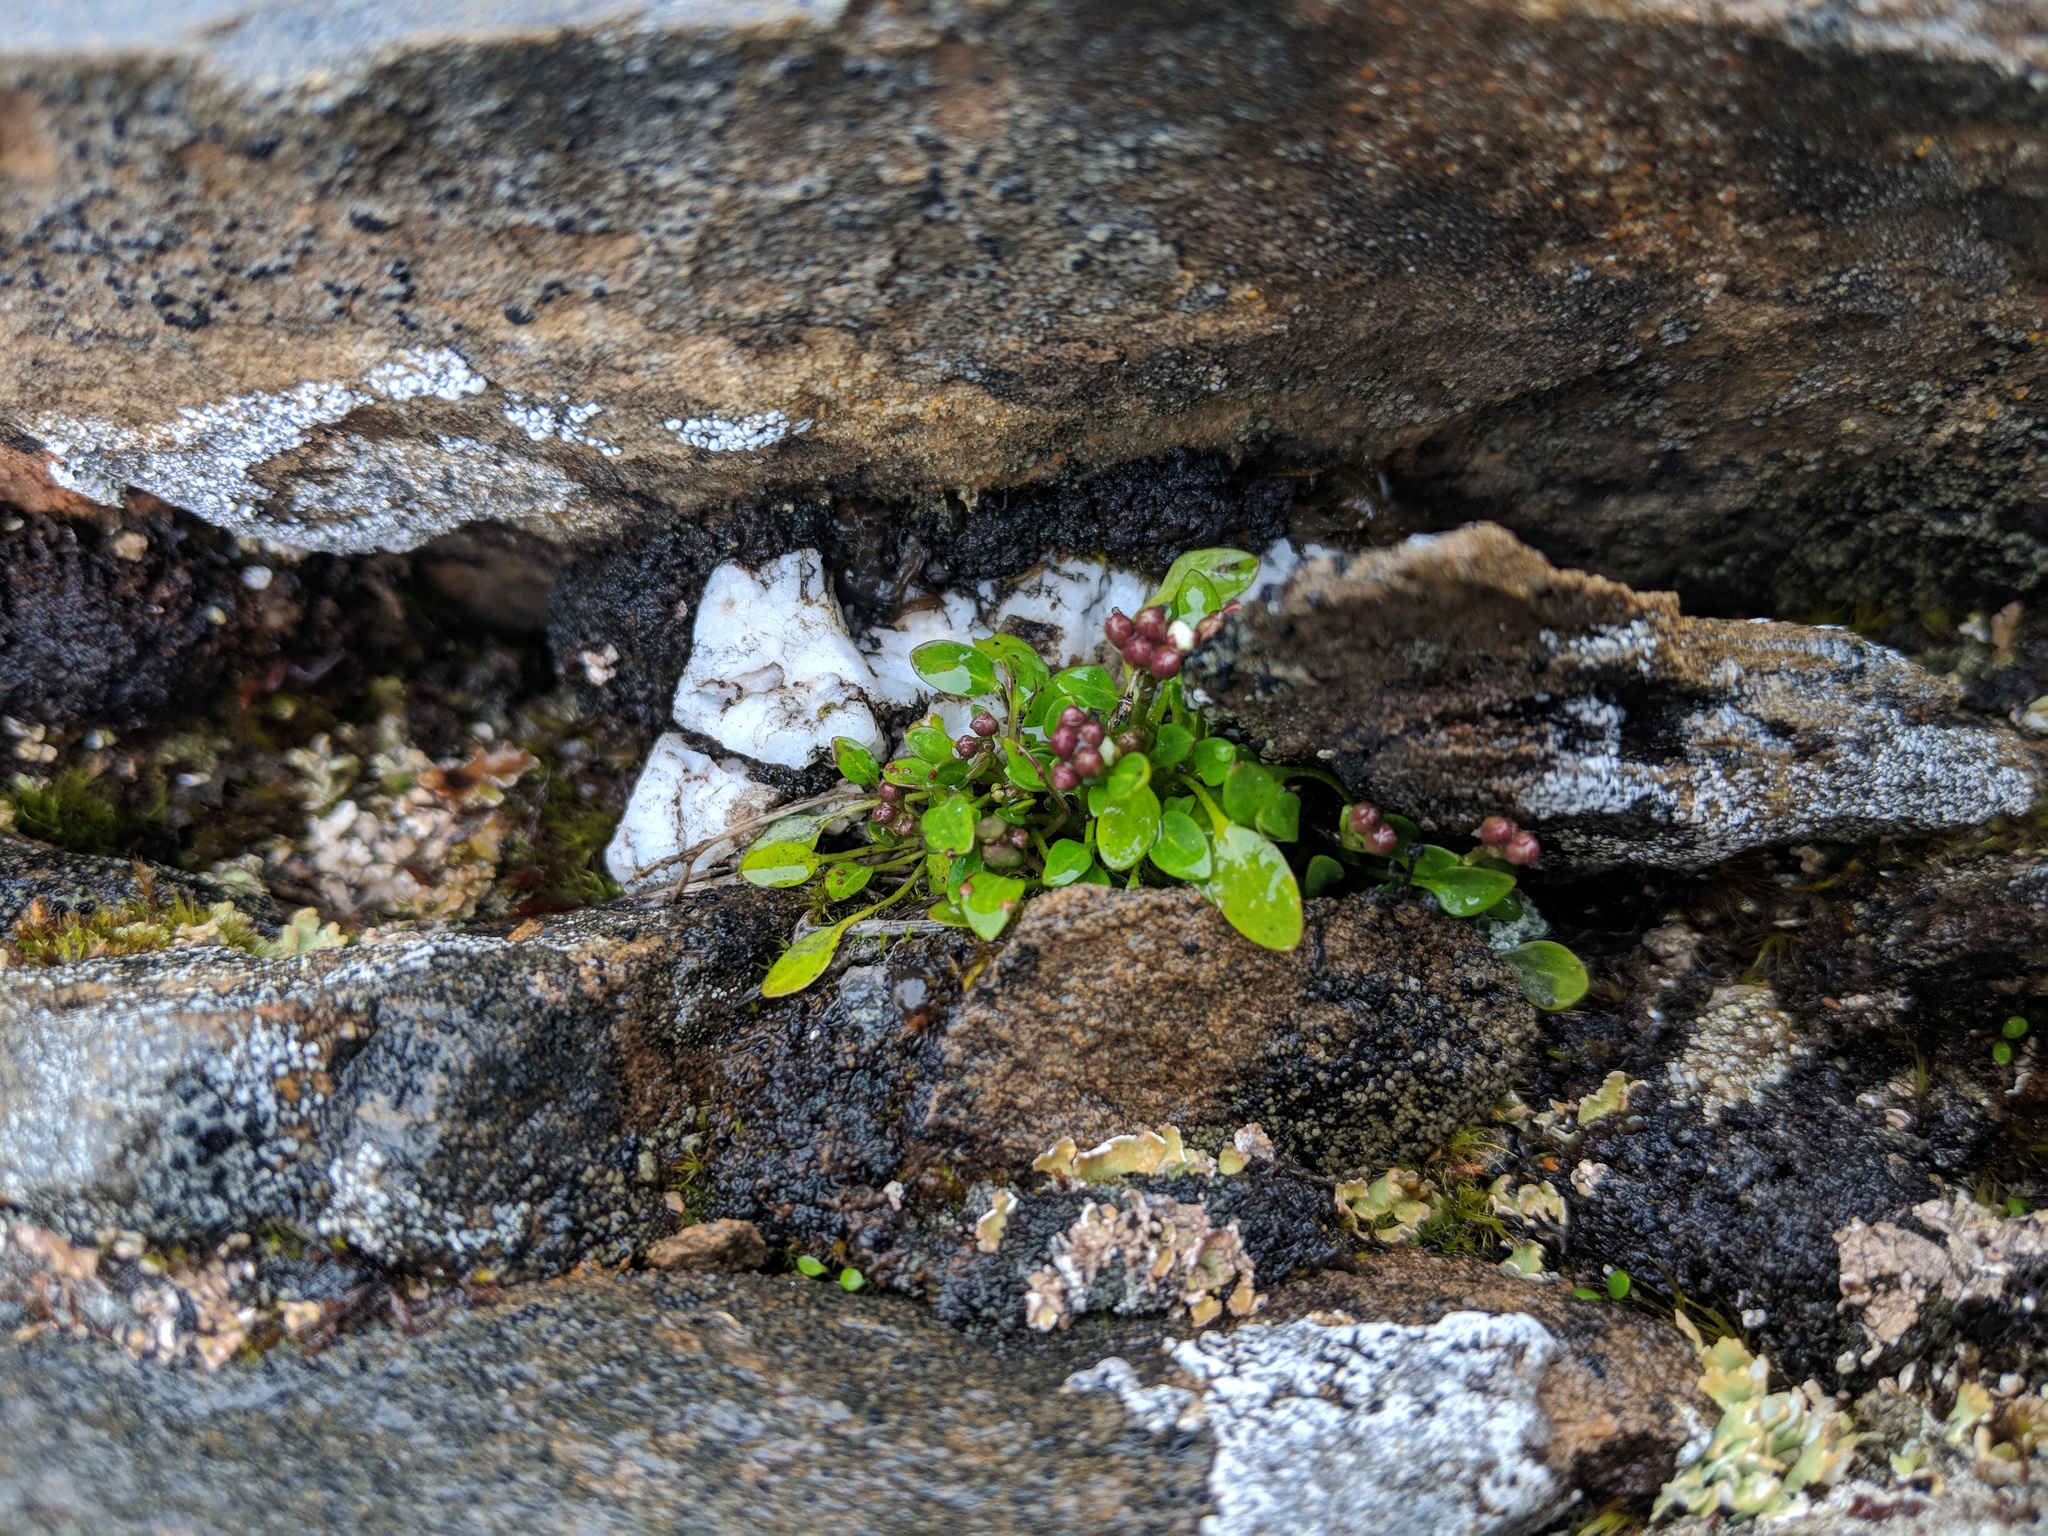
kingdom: Plantae
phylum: Tracheophyta
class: Magnoliopsida
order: Brassicales
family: Brassicaceae
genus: Cardamine
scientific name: Cardamine bellidifolia
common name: Alpine bittercress
